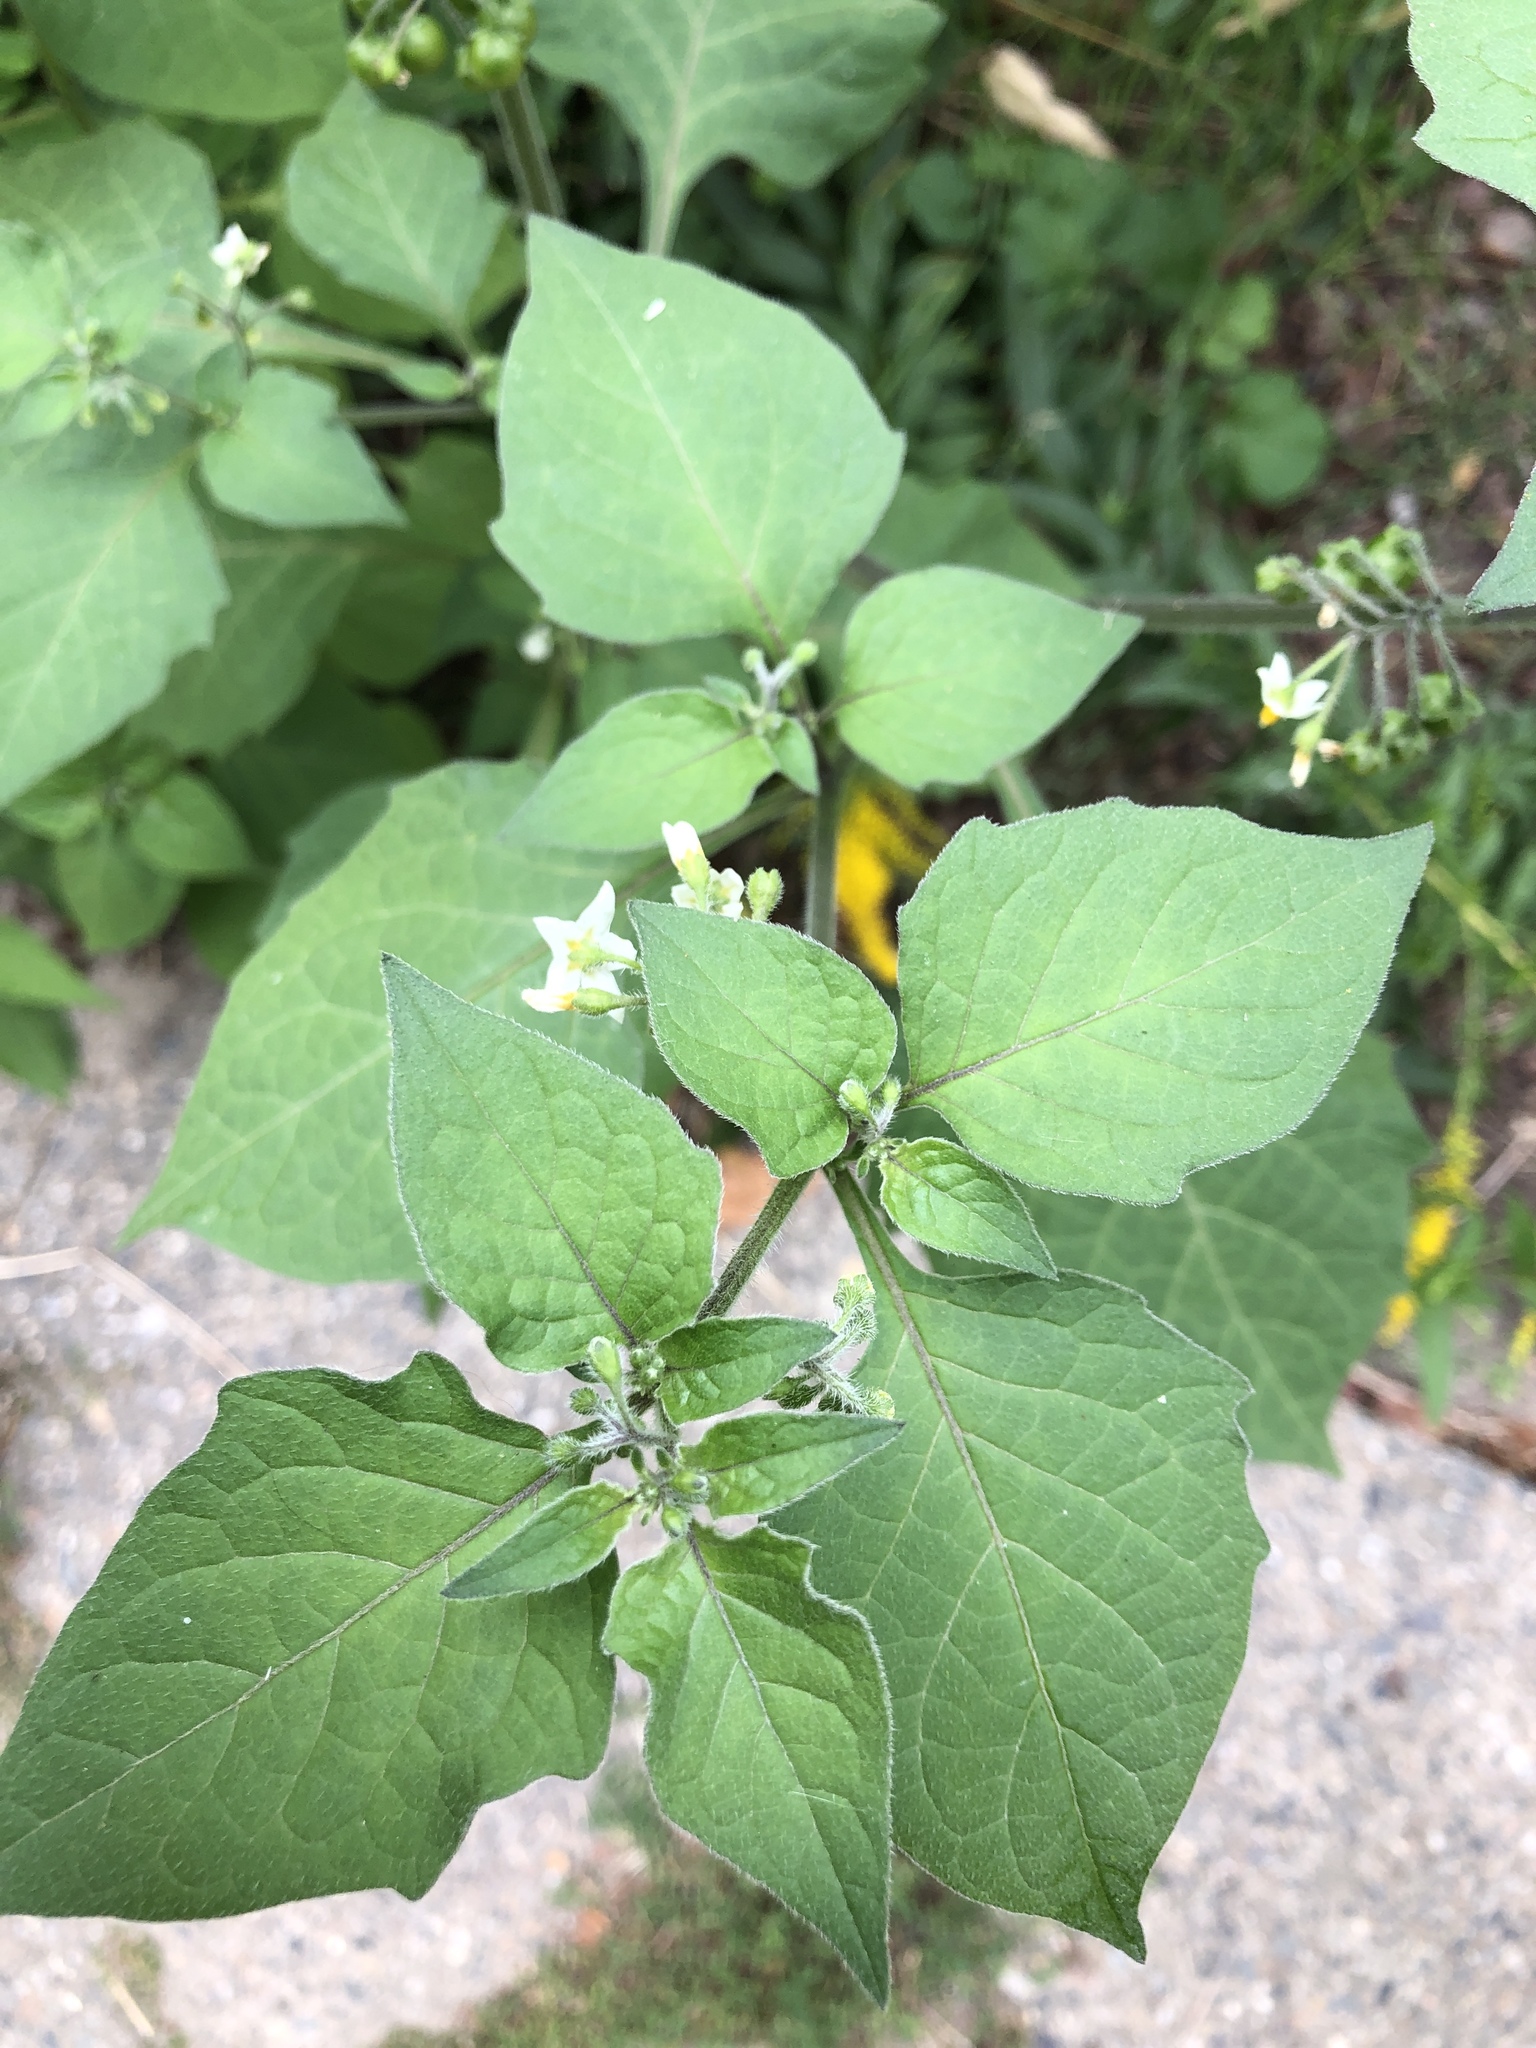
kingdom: Plantae
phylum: Tracheophyta
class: Magnoliopsida
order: Solanales
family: Solanaceae
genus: Solanum
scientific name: Solanum nigrum
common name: Black nightshade
